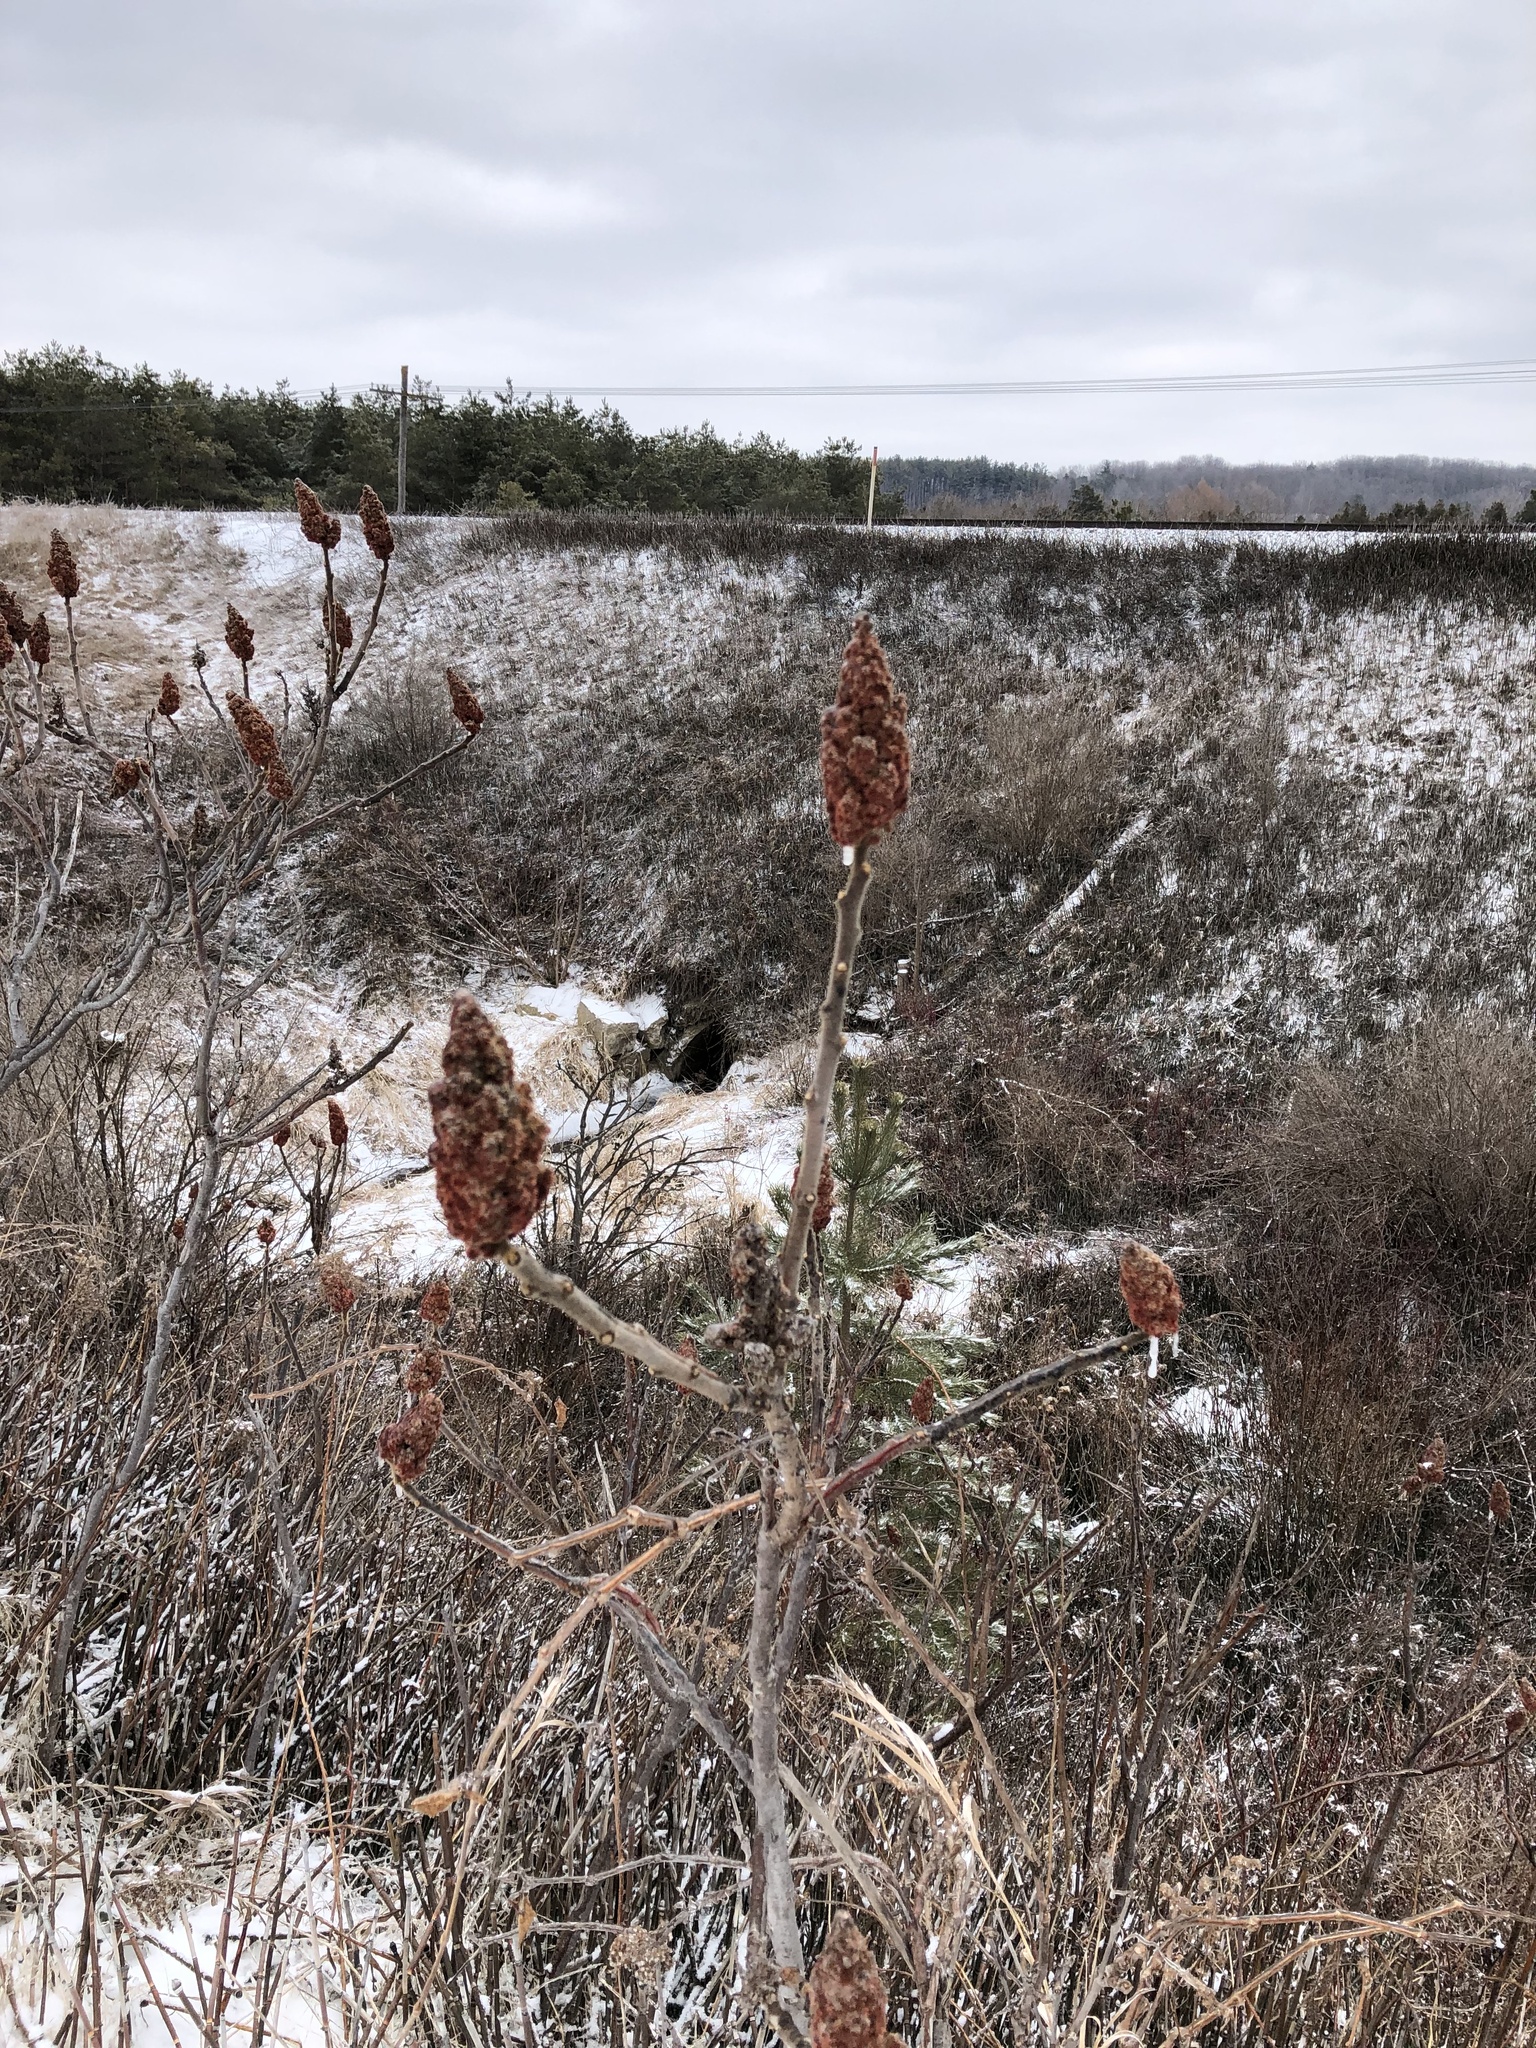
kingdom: Plantae
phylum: Tracheophyta
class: Magnoliopsida
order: Sapindales
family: Anacardiaceae
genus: Rhus
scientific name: Rhus typhina
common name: Staghorn sumac
